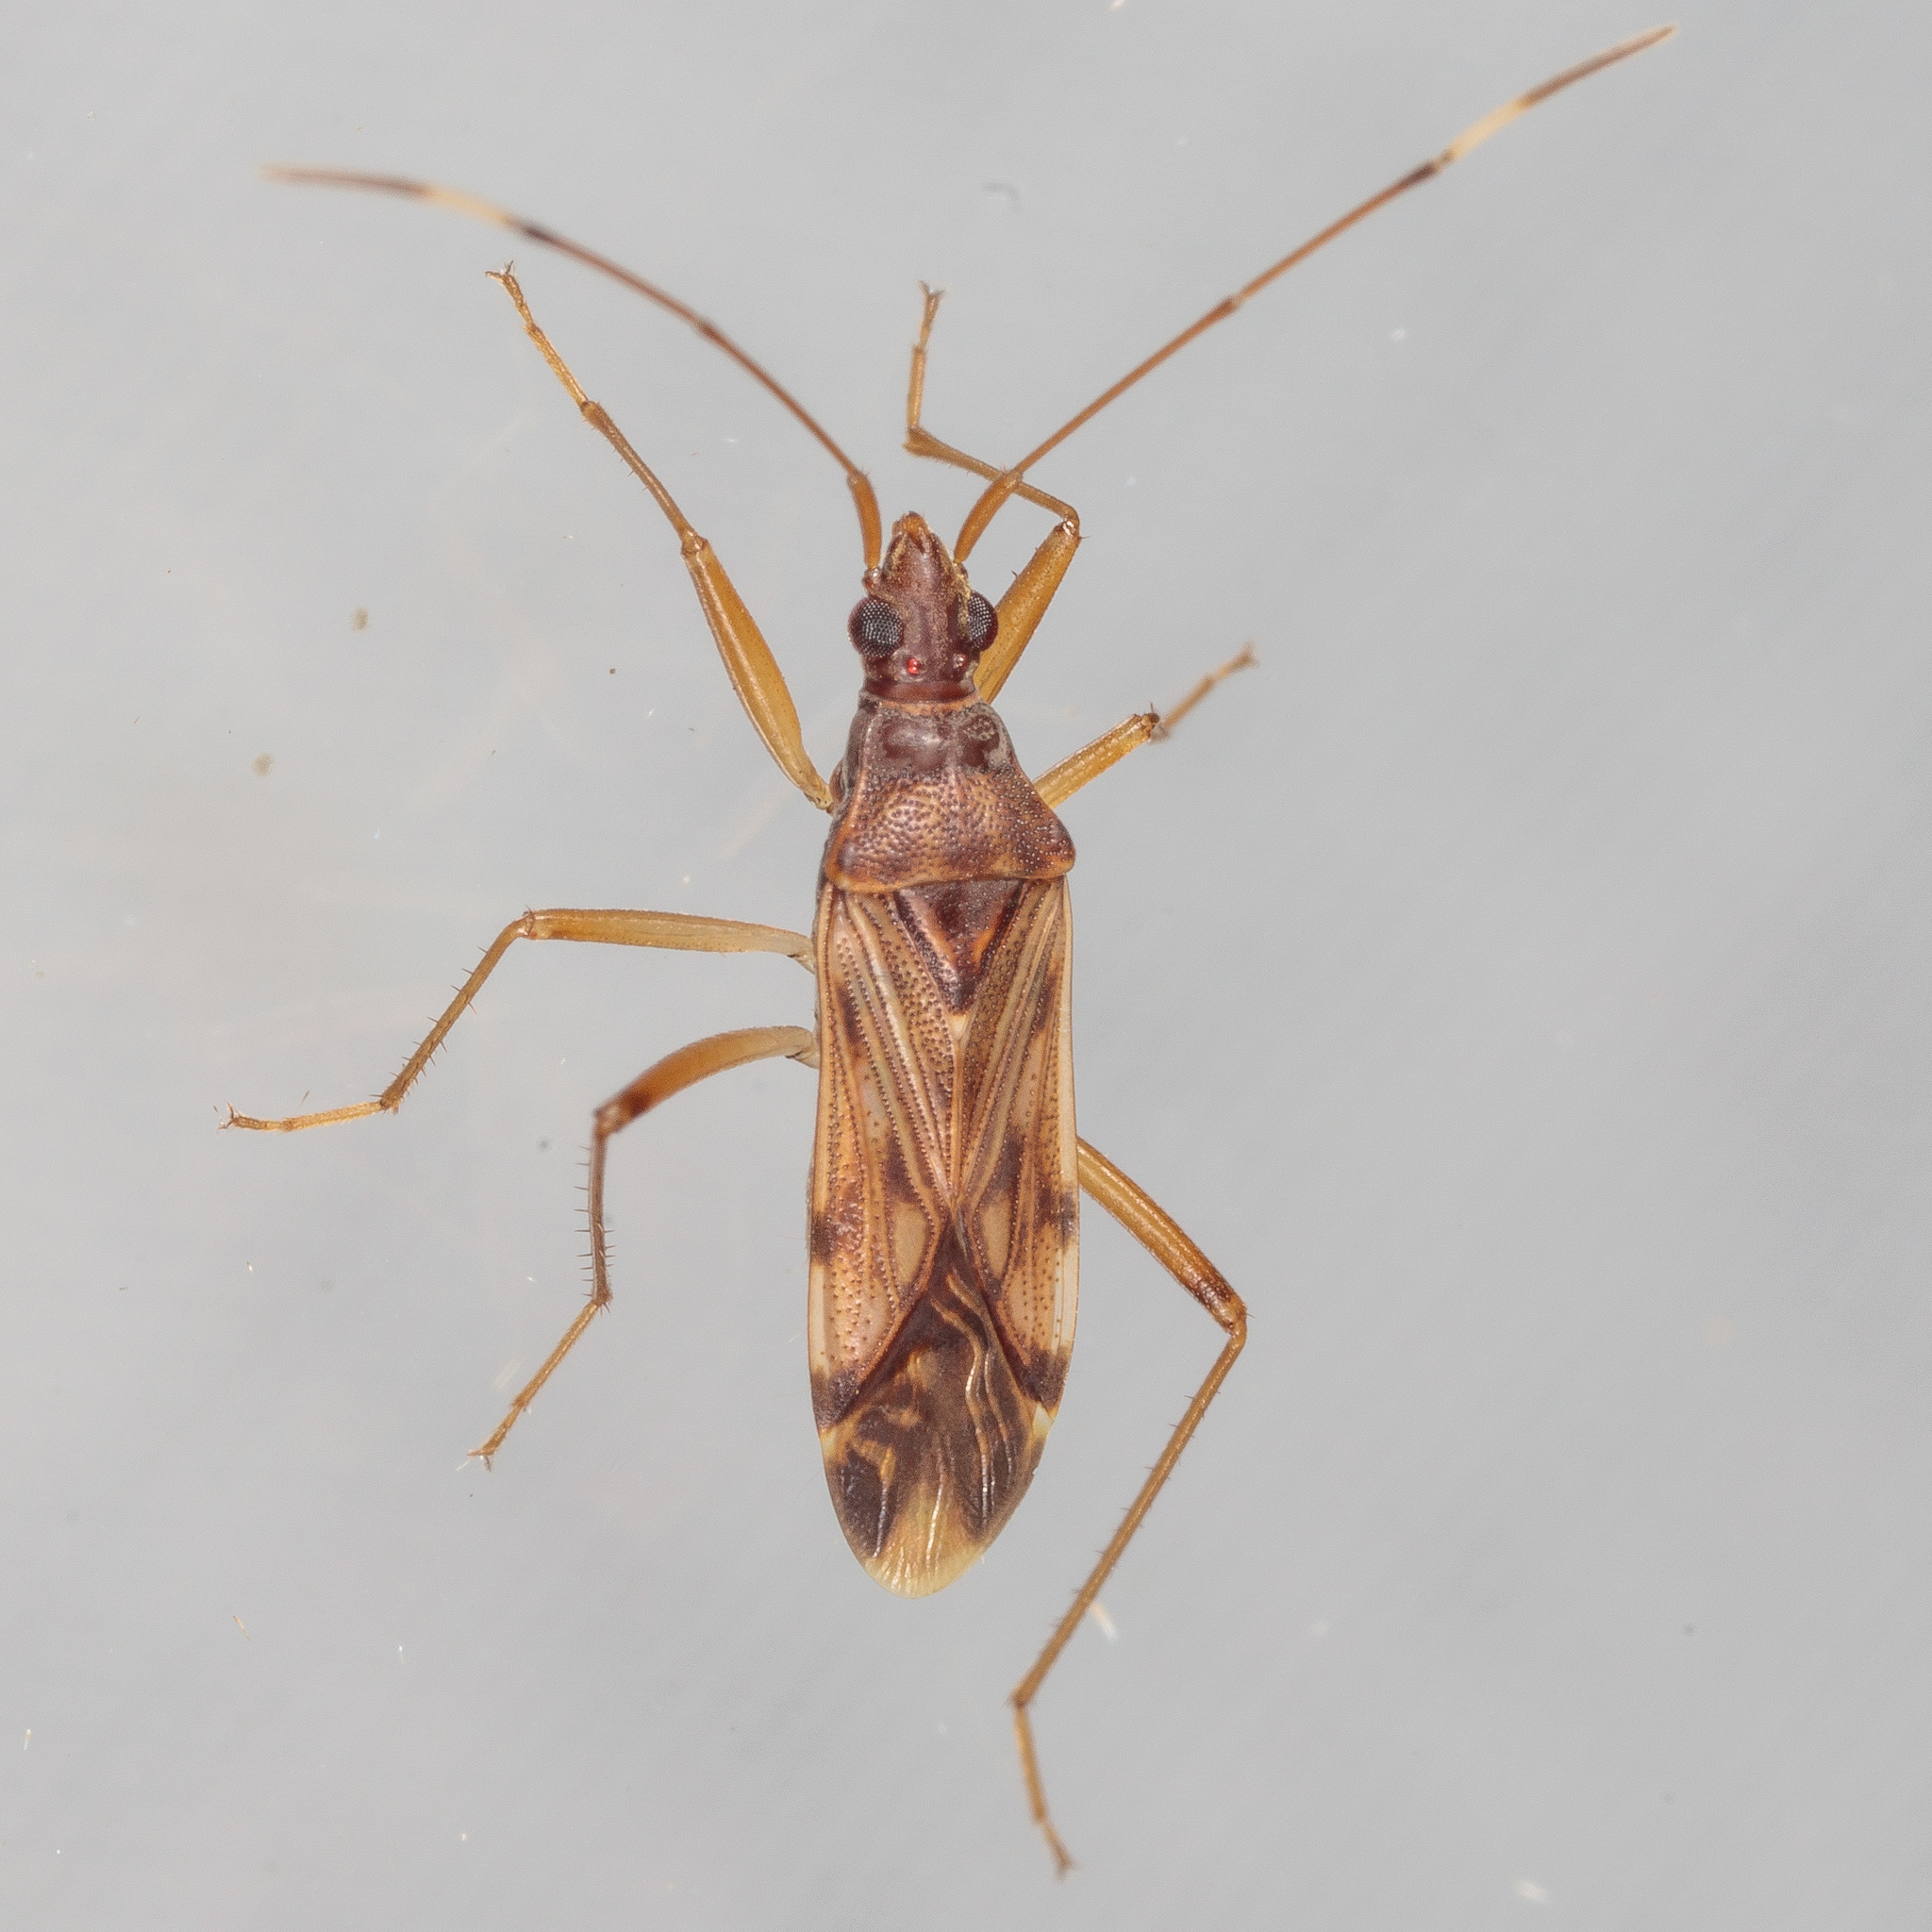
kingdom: Animalia
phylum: Arthropoda
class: Insecta
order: Hemiptera
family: Rhyparochromidae
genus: Ozophora
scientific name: Ozophora depicturata
